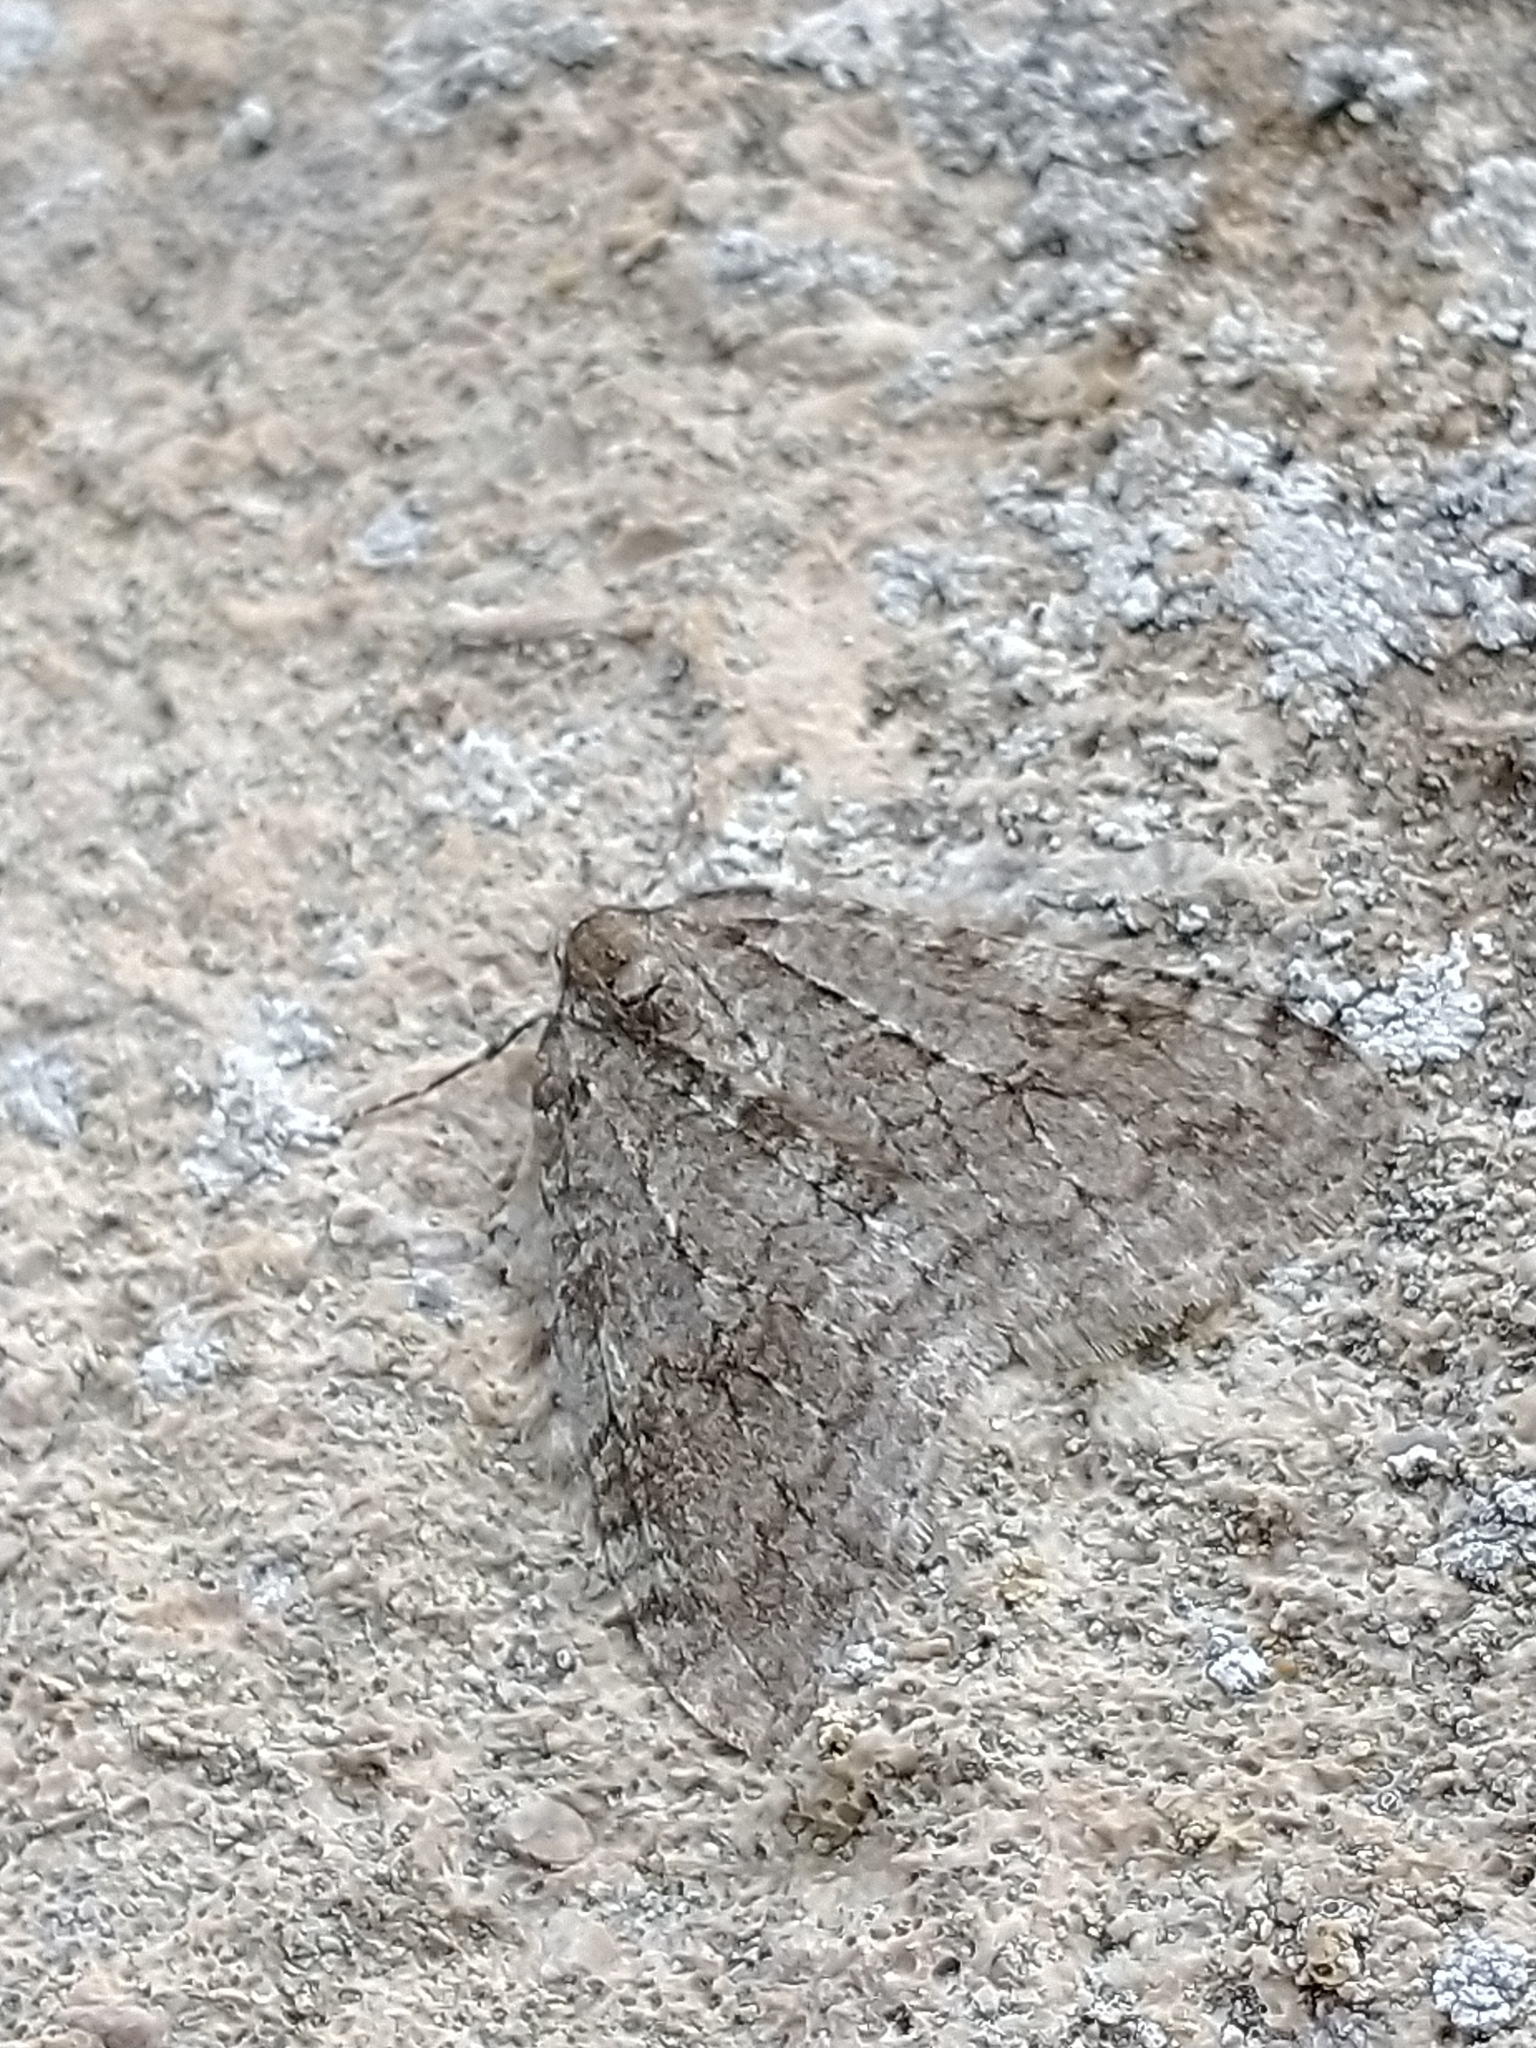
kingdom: Animalia
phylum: Arthropoda
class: Insecta
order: Lepidoptera
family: Geometridae
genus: Epirrita
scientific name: Epirrita
